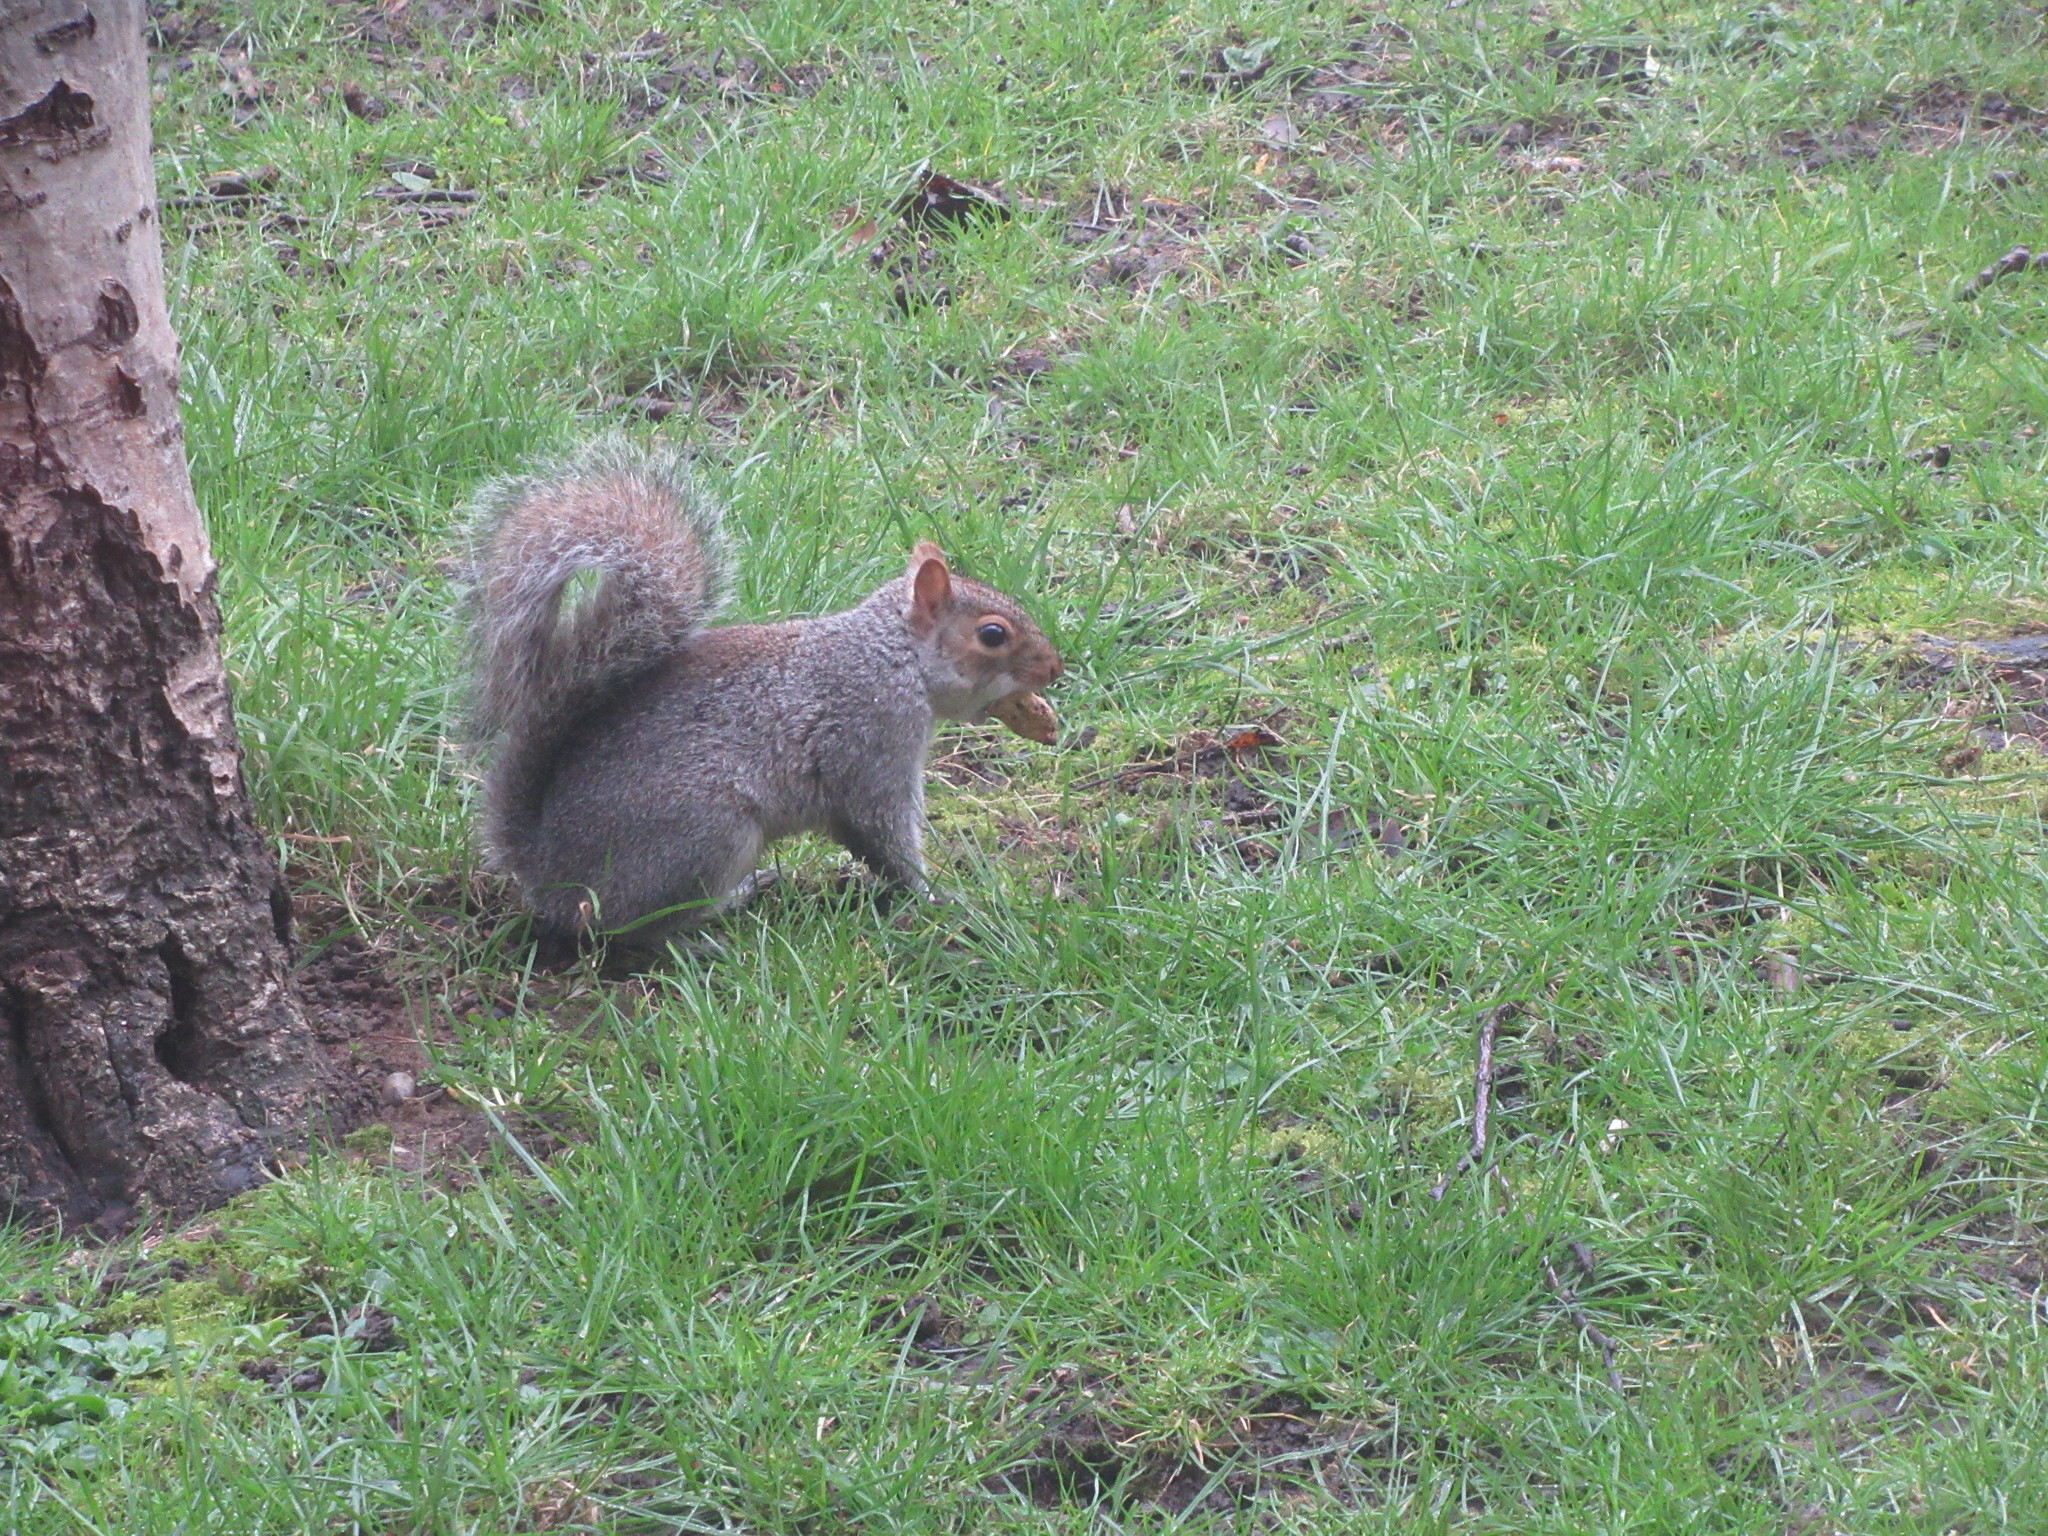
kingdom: Animalia
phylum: Chordata
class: Mammalia
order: Rodentia
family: Sciuridae
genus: Sciurus
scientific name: Sciurus carolinensis
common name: Eastern gray squirrel
